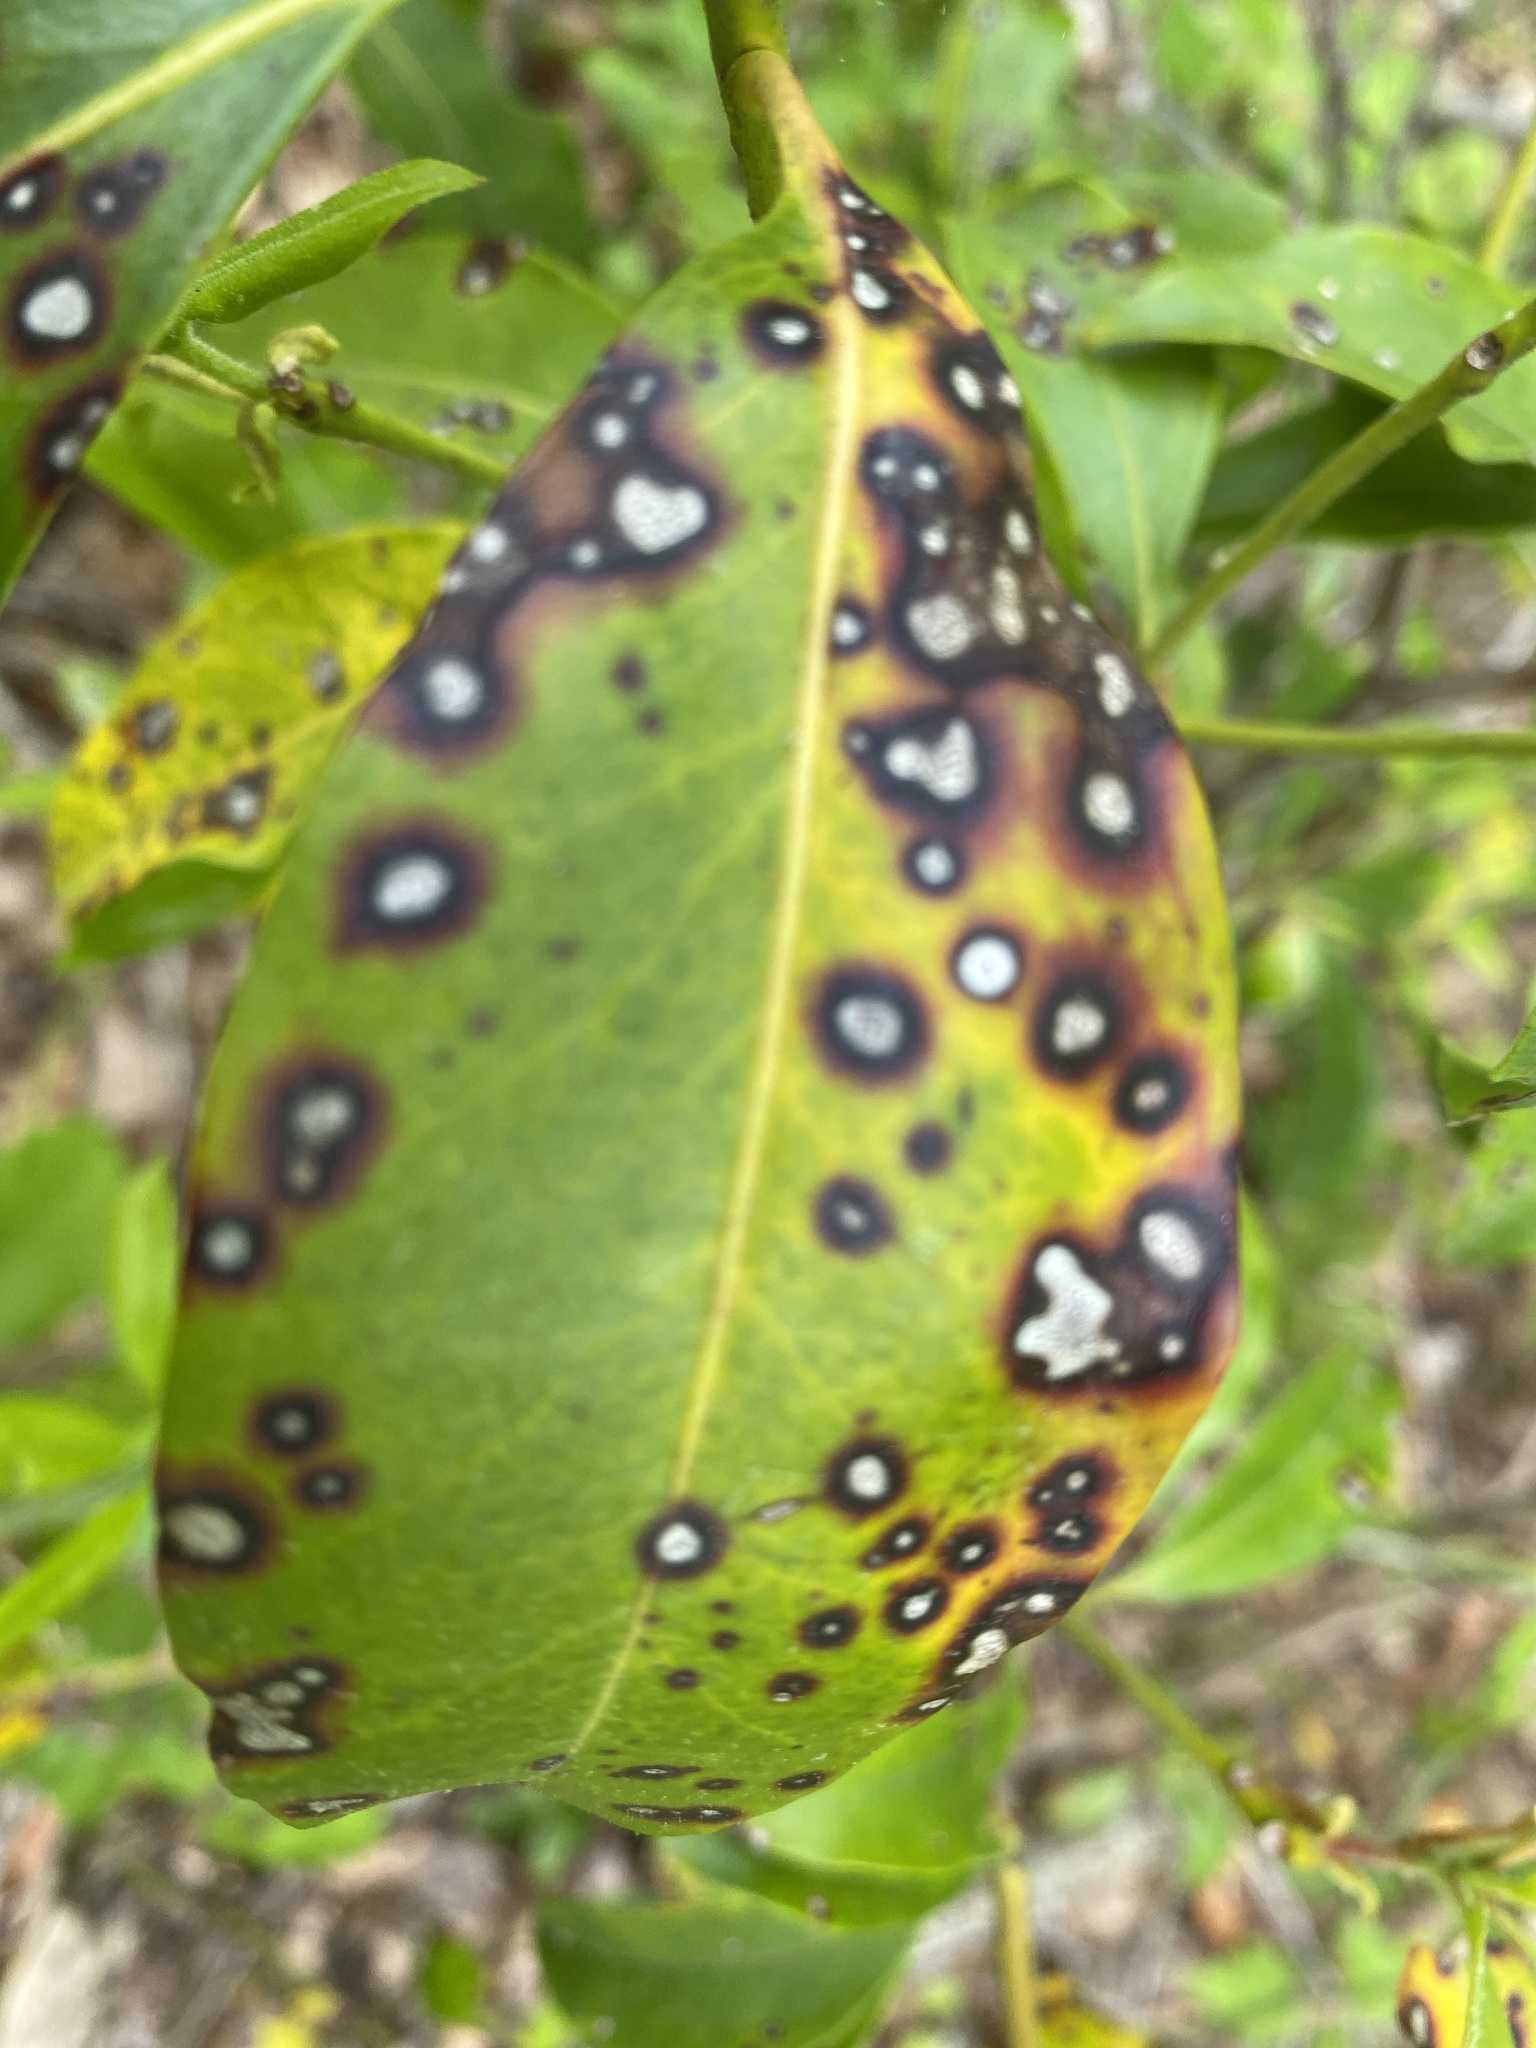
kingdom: Fungi
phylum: Ascomycota
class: Dothideomycetes
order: Mycosphaerellales
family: Mycosphaerellaceae
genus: Mycosphaerella
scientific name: Mycosphaerella colorata
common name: Mountain laurel leaf spot
